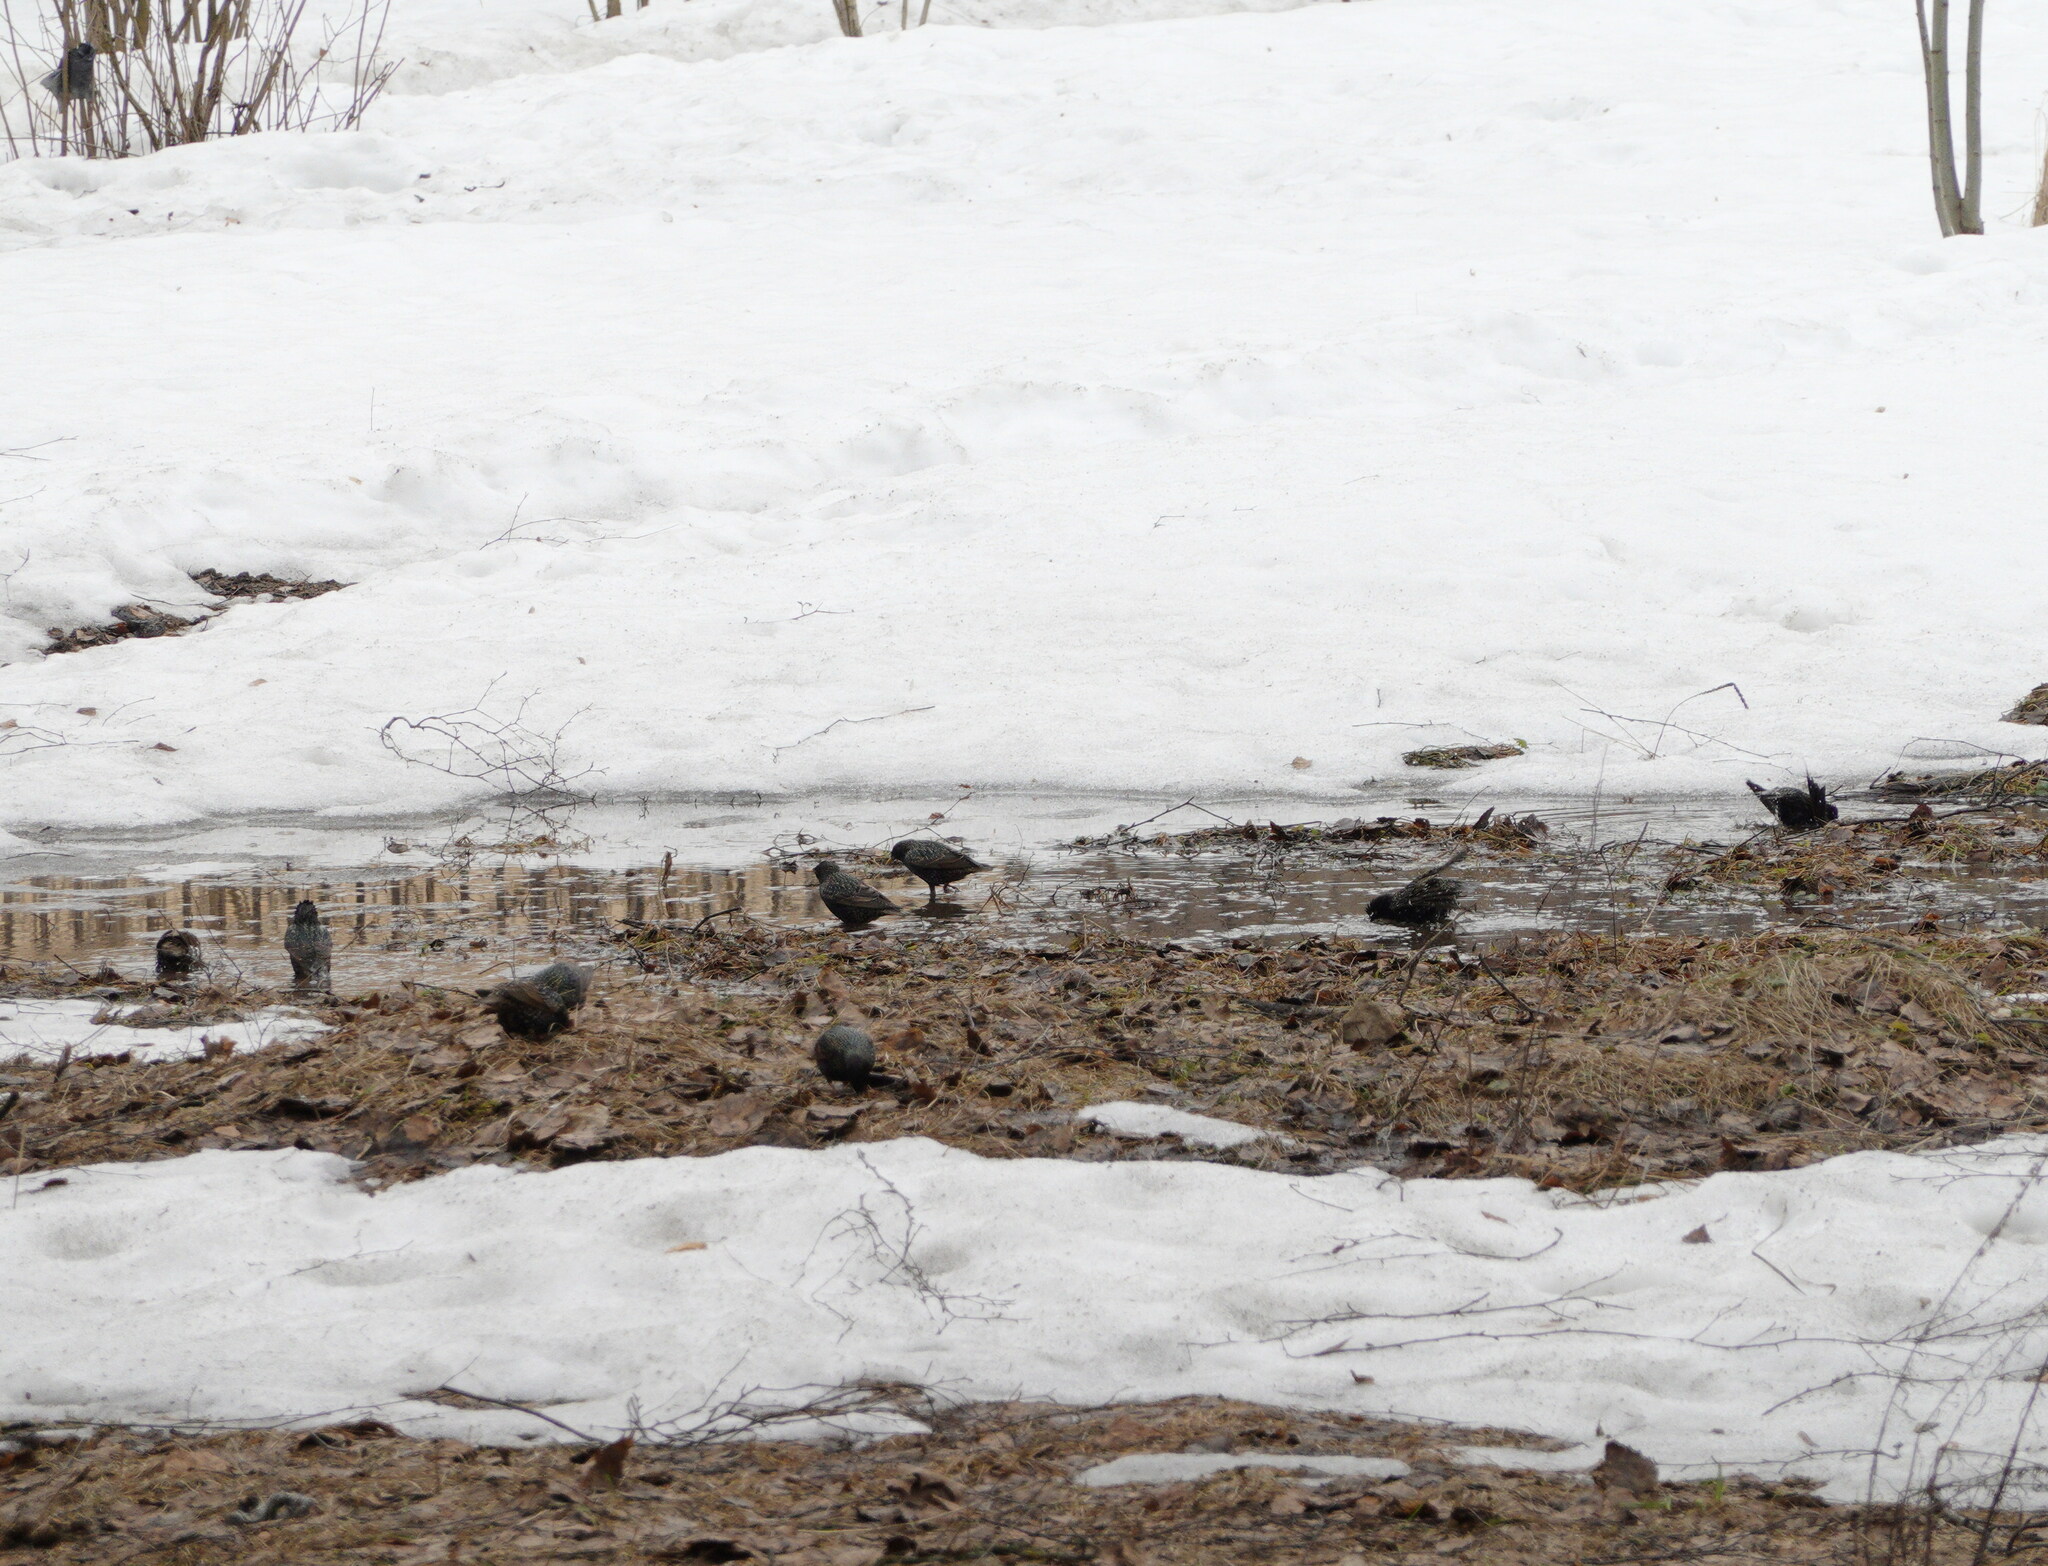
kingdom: Animalia
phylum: Chordata
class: Aves
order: Passeriformes
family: Sturnidae
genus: Sturnus
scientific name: Sturnus vulgaris
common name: Common starling
